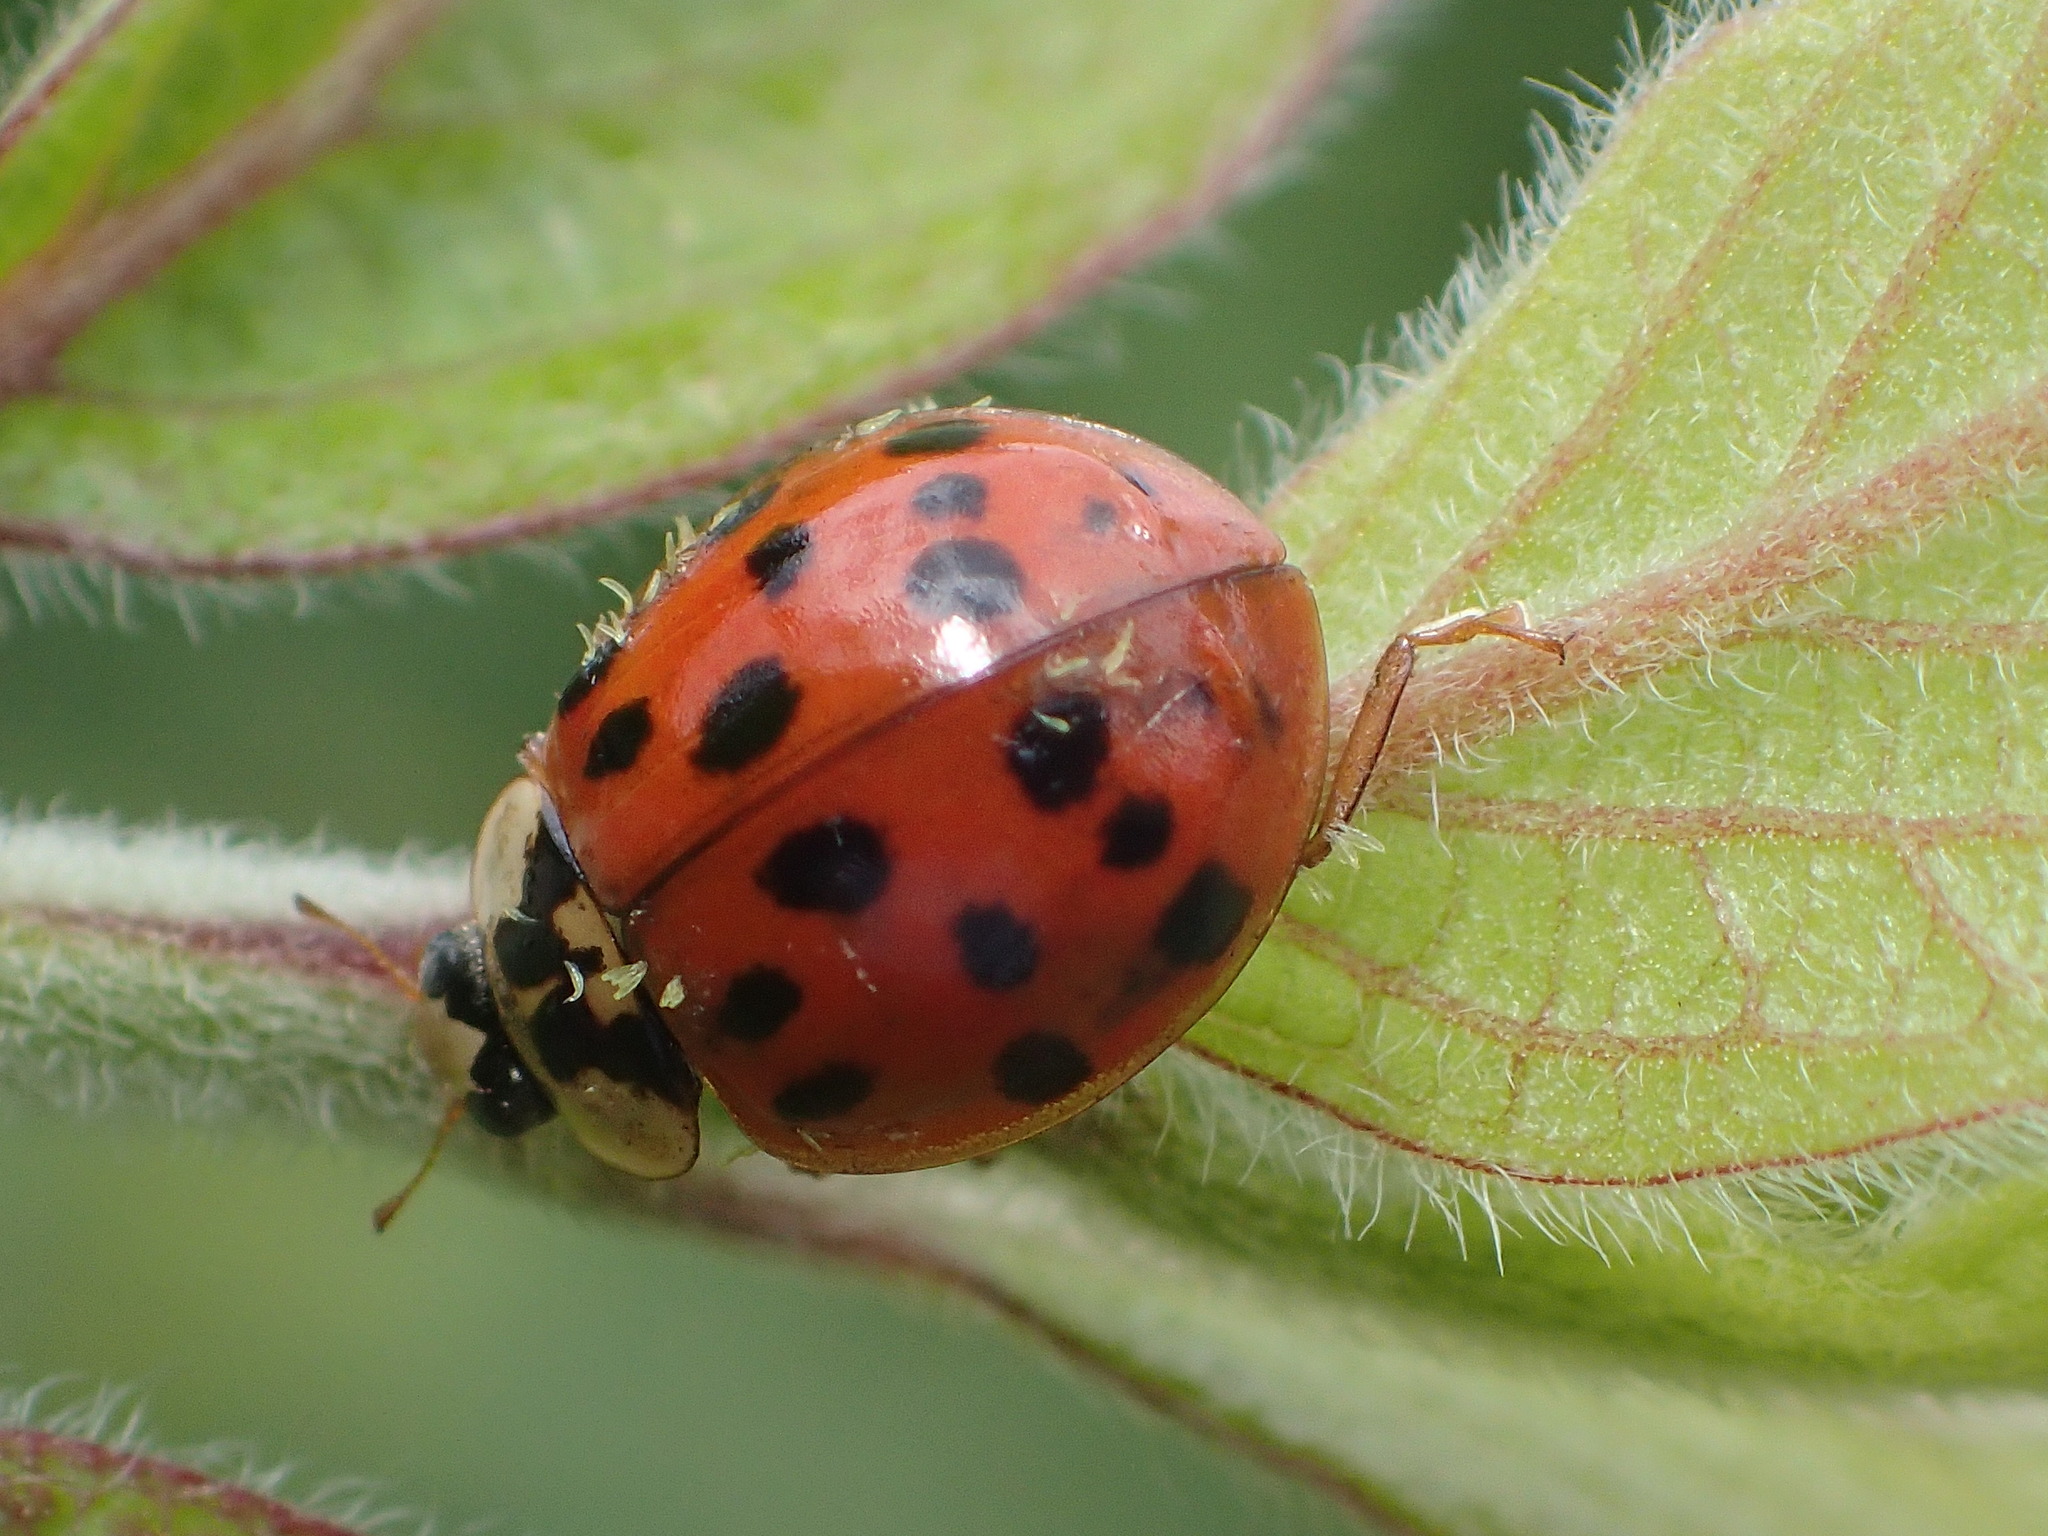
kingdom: Fungi
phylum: Ascomycota
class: Laboulbeniomycetes
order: Laboulbeniales
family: Laboulbeniaceae
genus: Hesperomyces
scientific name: Hesperomyces harmoniae
